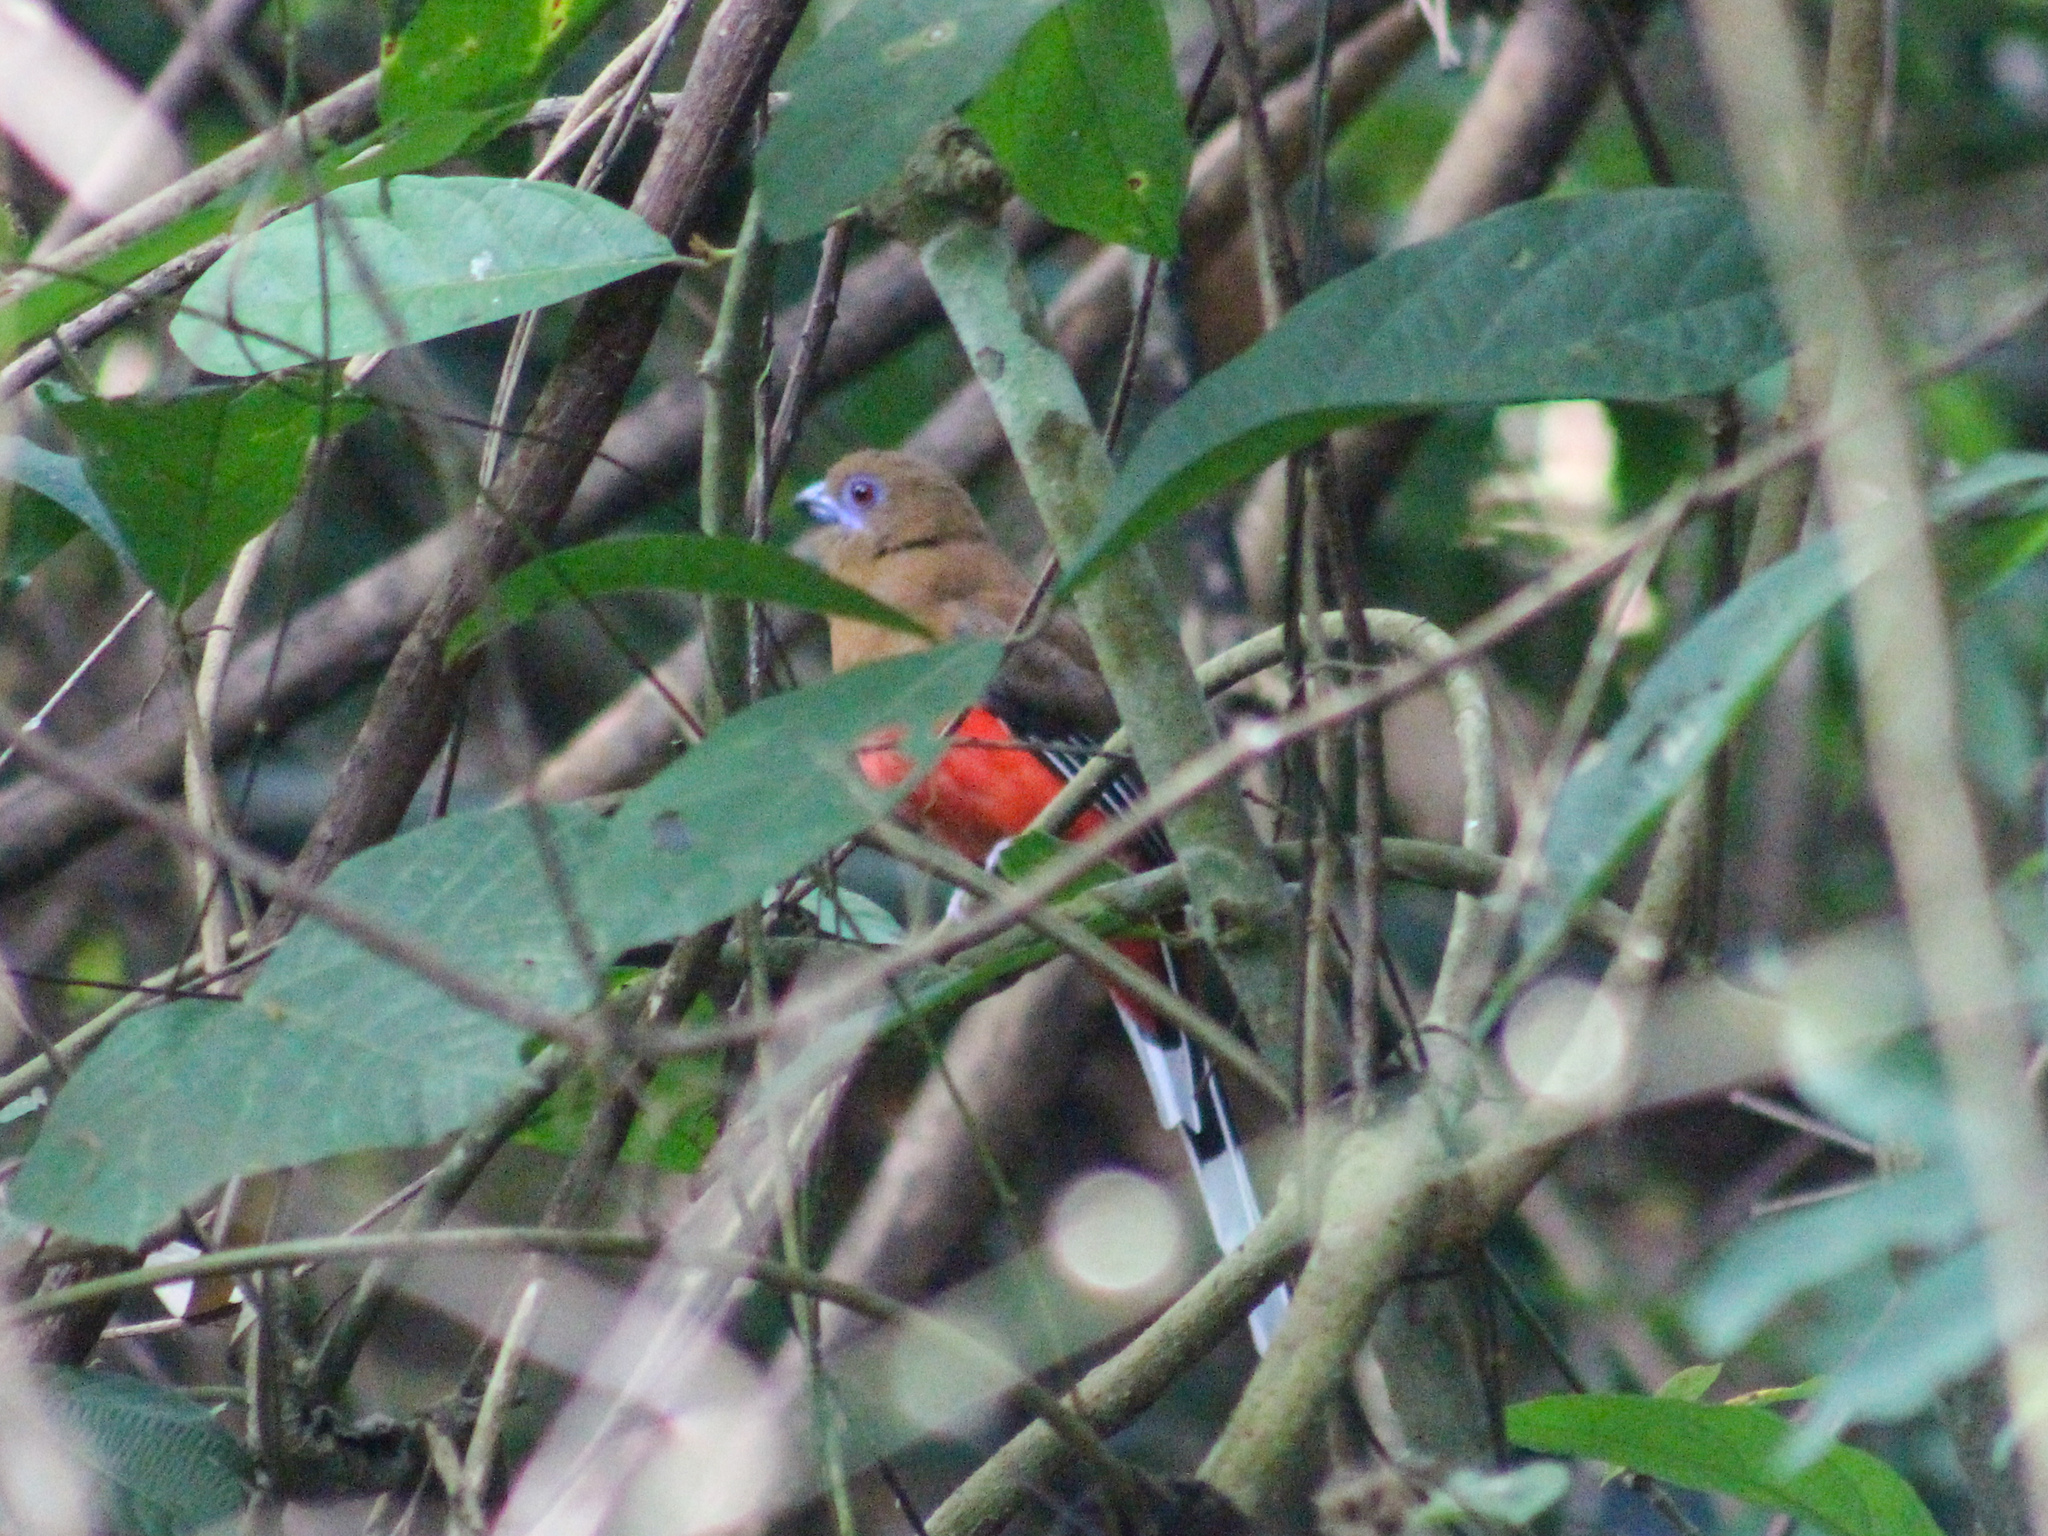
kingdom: Animalia
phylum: Chordata
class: Aves
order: Trogoniformes
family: Trogonidae
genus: Harpactes
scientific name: Harpactes erythrocephalus
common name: Red-headed trogon
